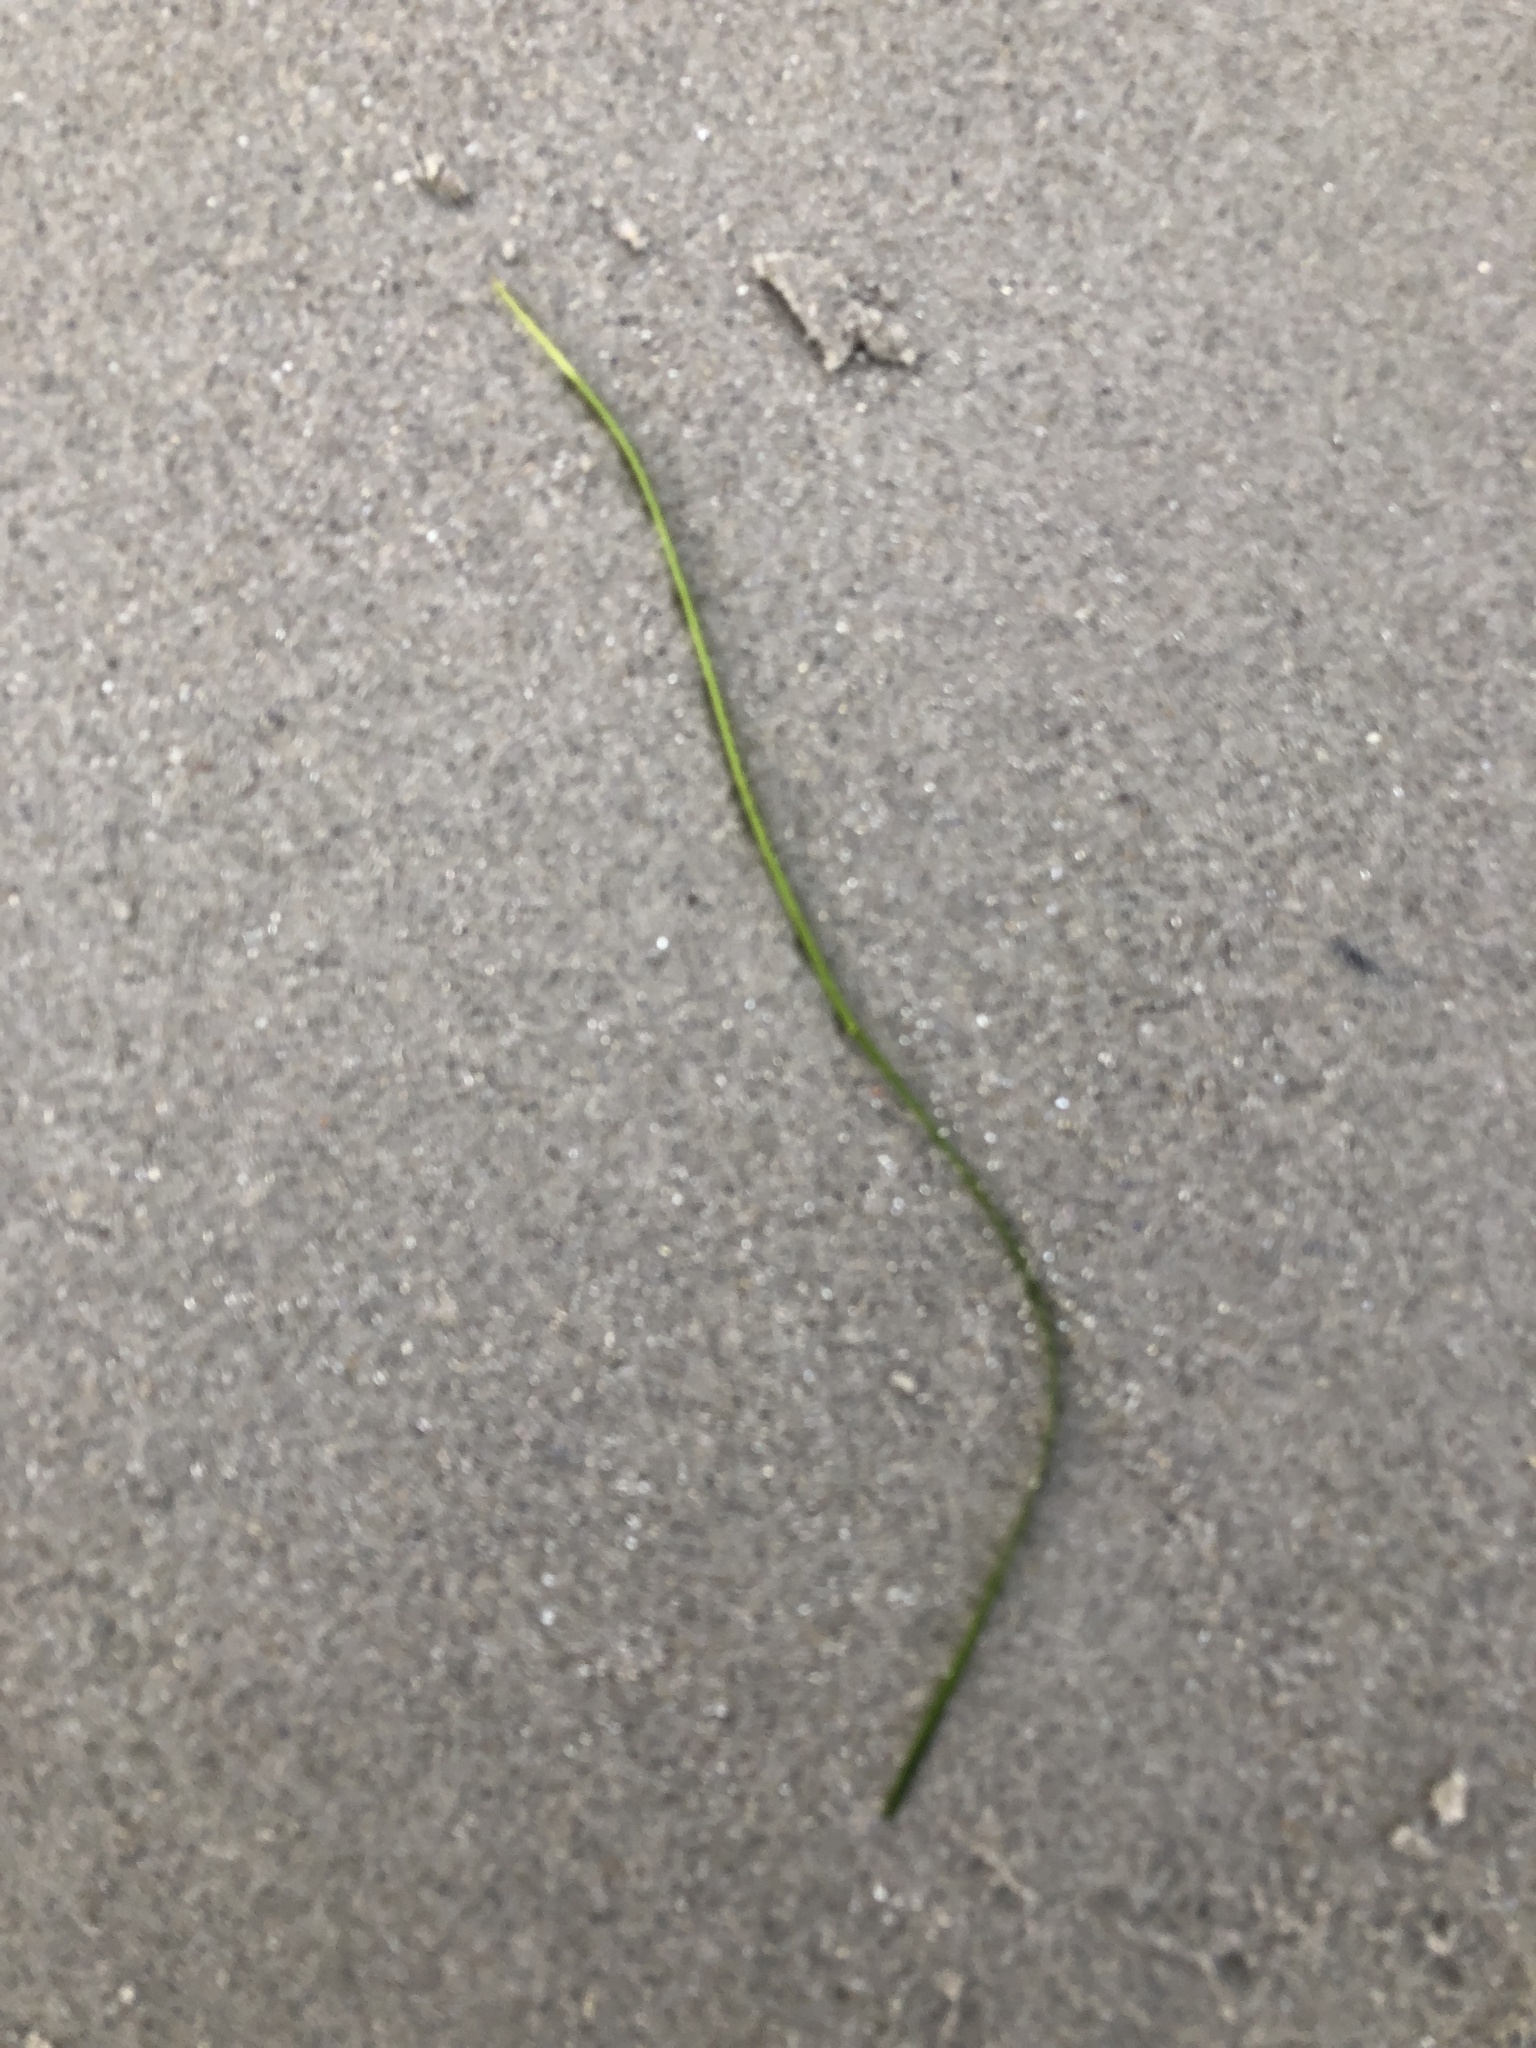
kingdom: Plantae
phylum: Tracheophyta
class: Liliopsida
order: Alismatales
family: Zosteraceae
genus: Zostera
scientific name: Zostera marina
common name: Eelgrass
